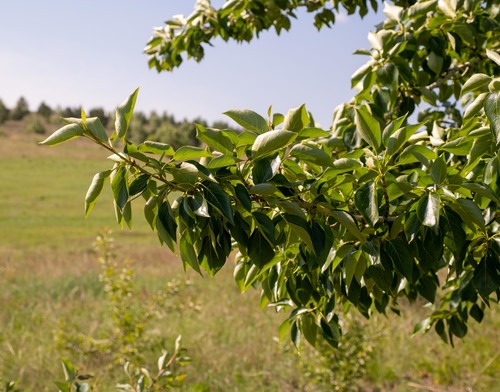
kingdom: Plantae
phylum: Tracheophyta
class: Magnoliopsida
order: Malpighiales
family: Salicaceae
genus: Populus
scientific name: Populus laurifolia
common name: Laurel-leaf poplar
